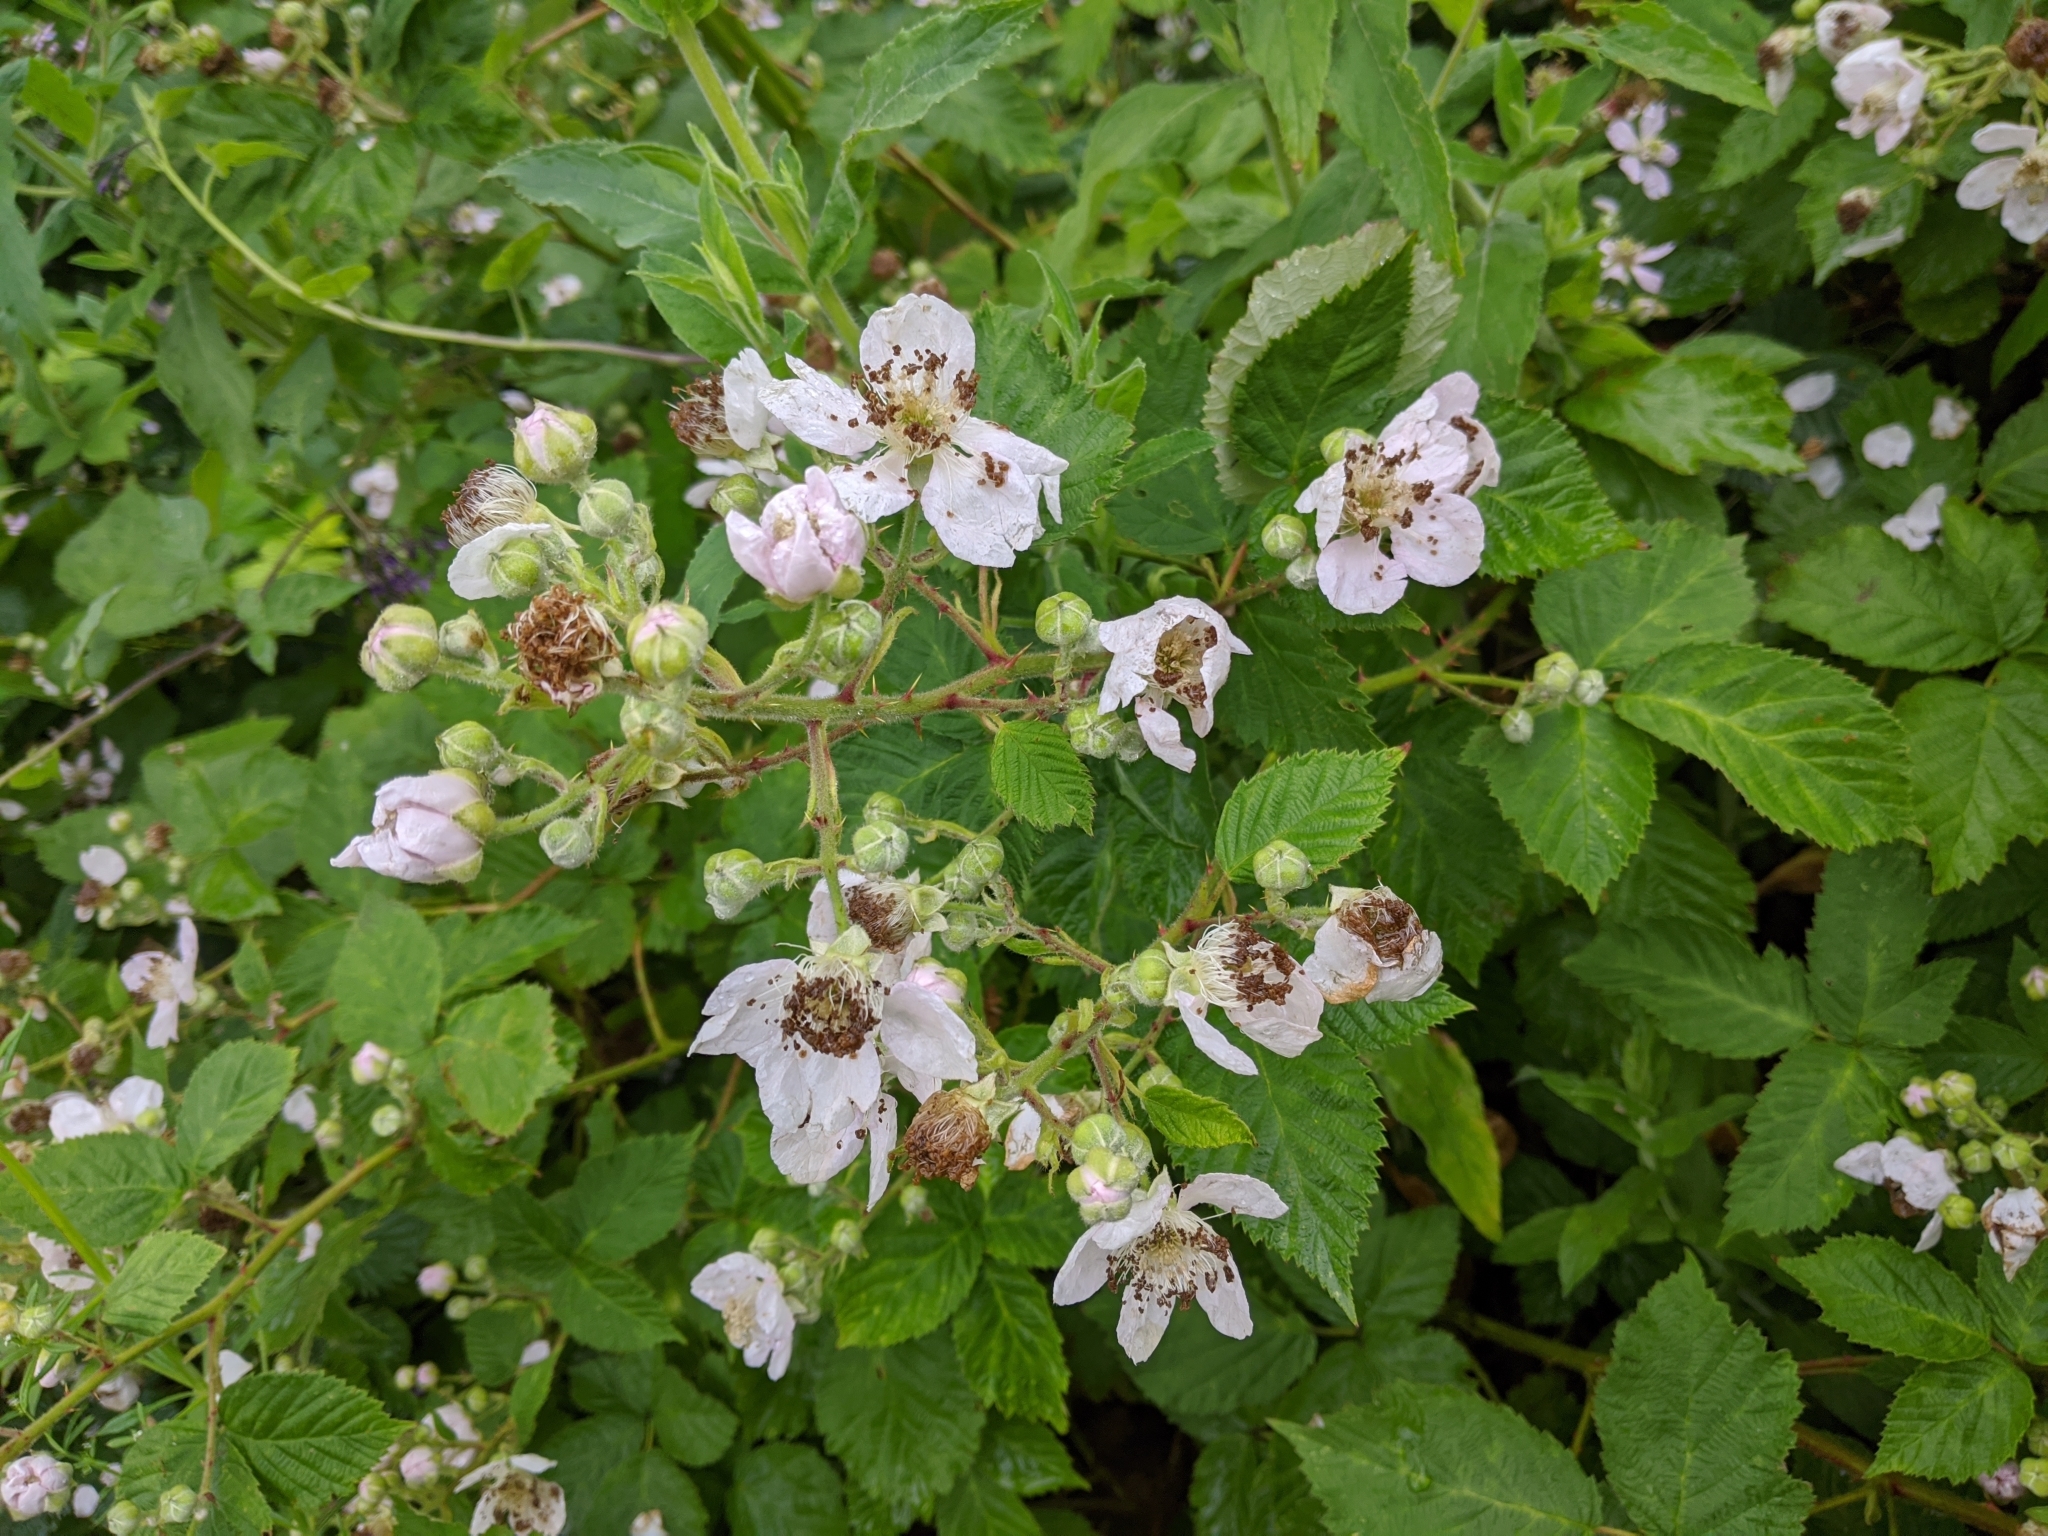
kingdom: Plantae
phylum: Tracheophyta
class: Magnoliopsida
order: Rosales
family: Rosaceae
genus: Rubus
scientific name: Rubus incurvatiformis
